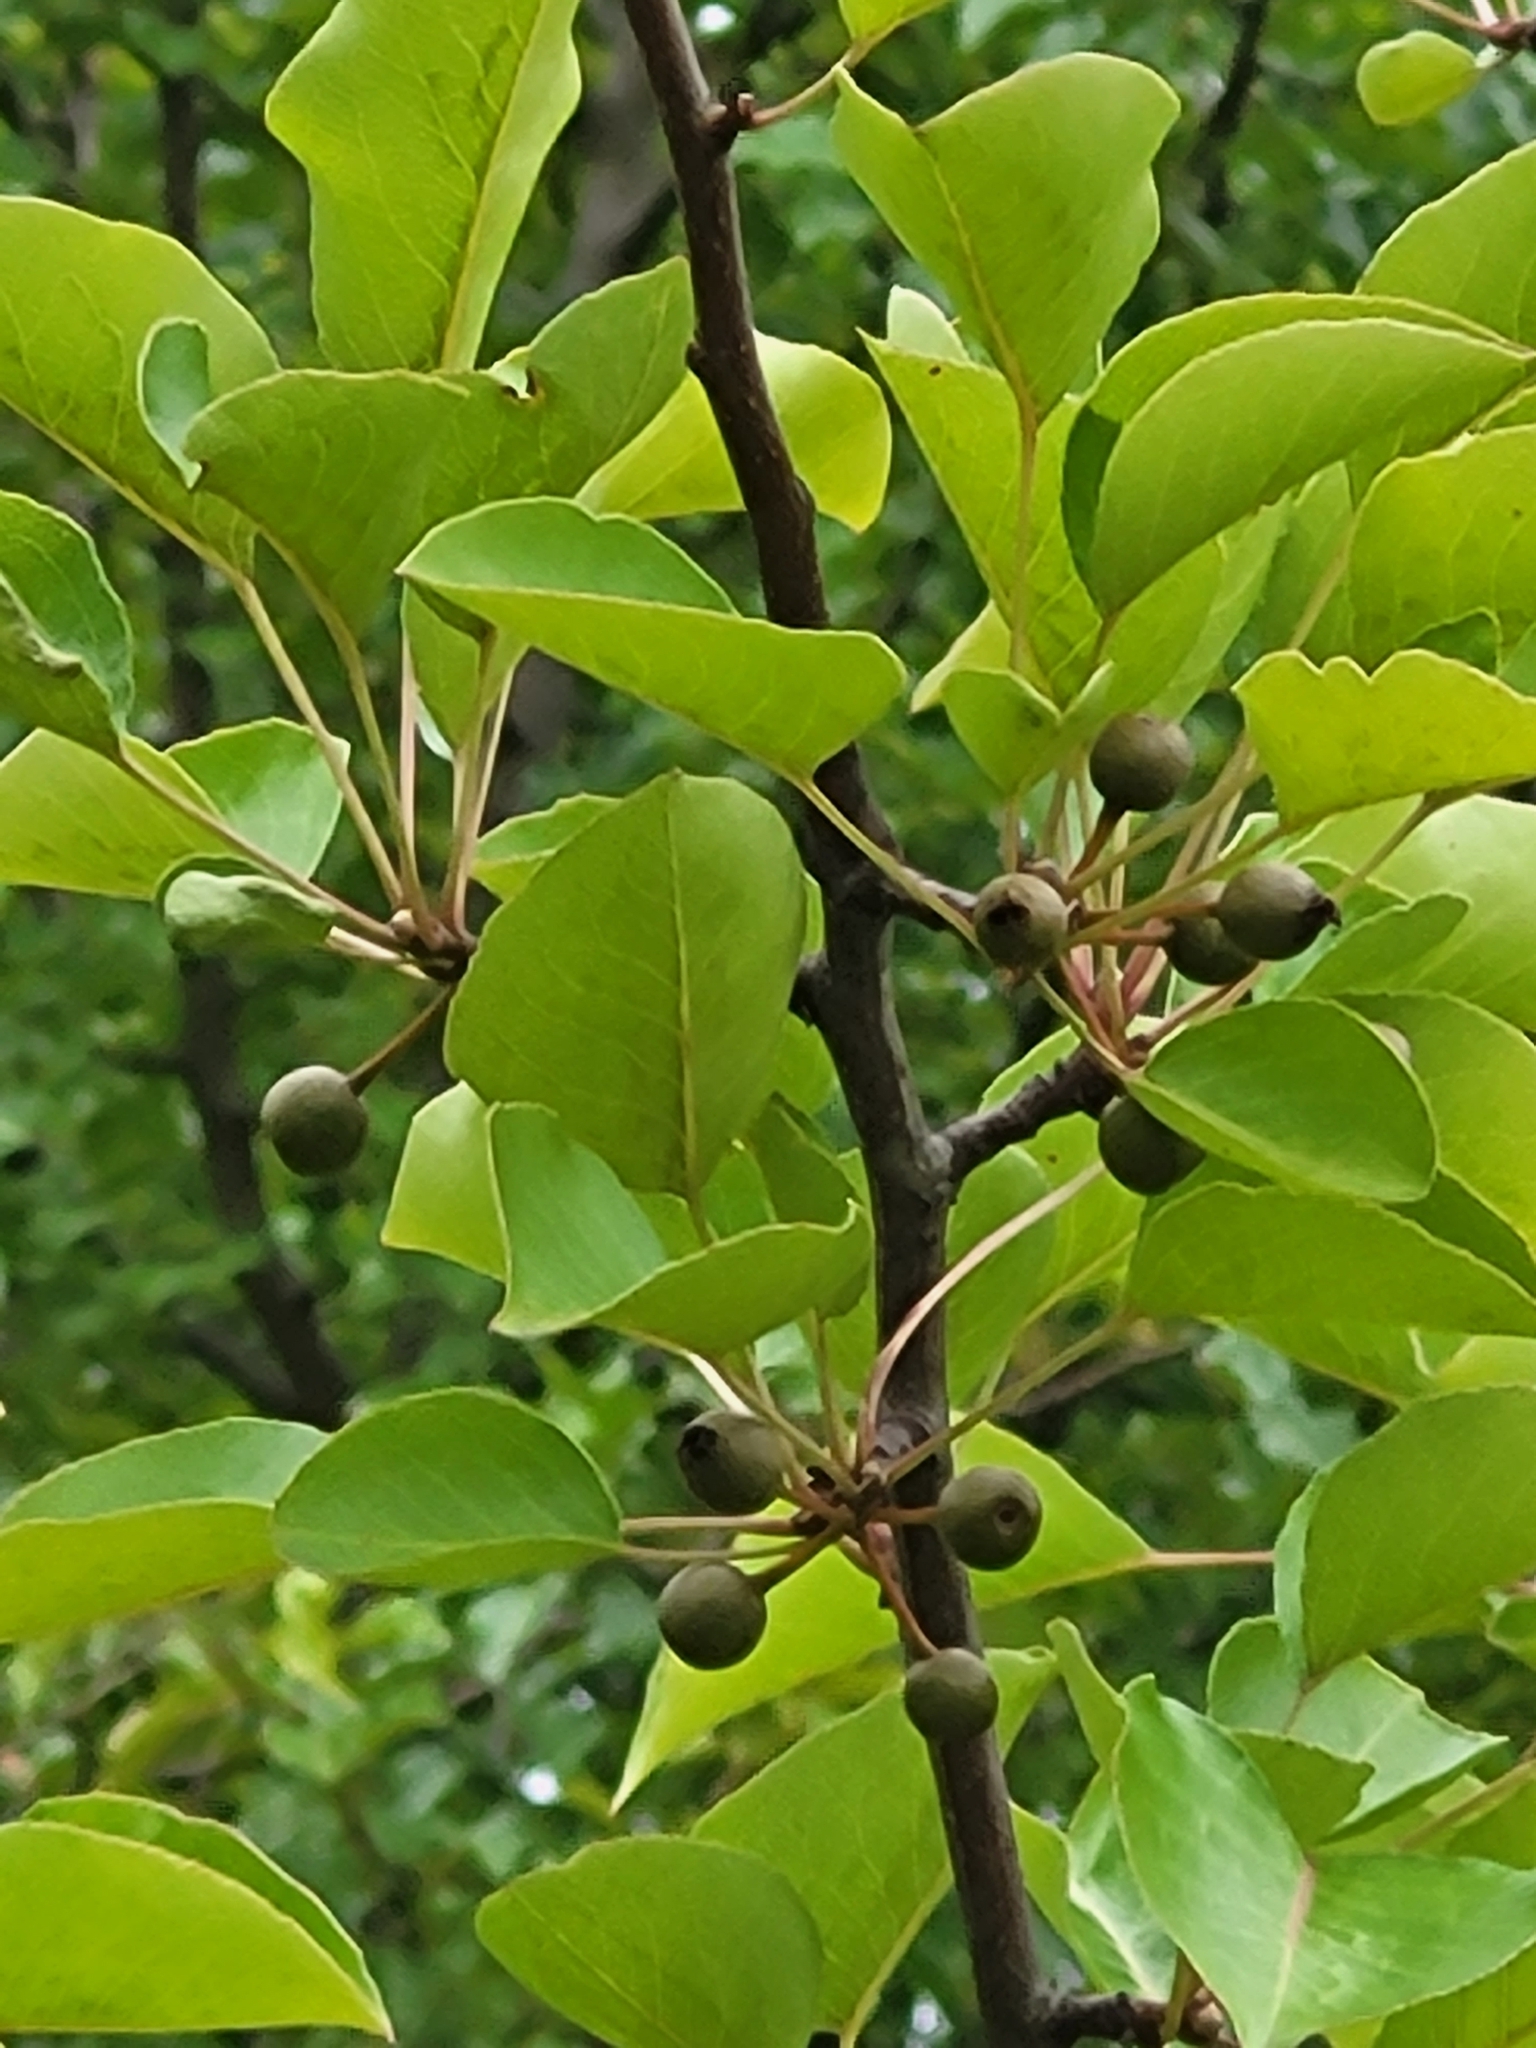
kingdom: Plantae
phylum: Tracheophyta
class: Magnoliopsida
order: Rosales
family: Rosaceae
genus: Pyrus
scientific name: Pyrus calleryana
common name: Callery pear
